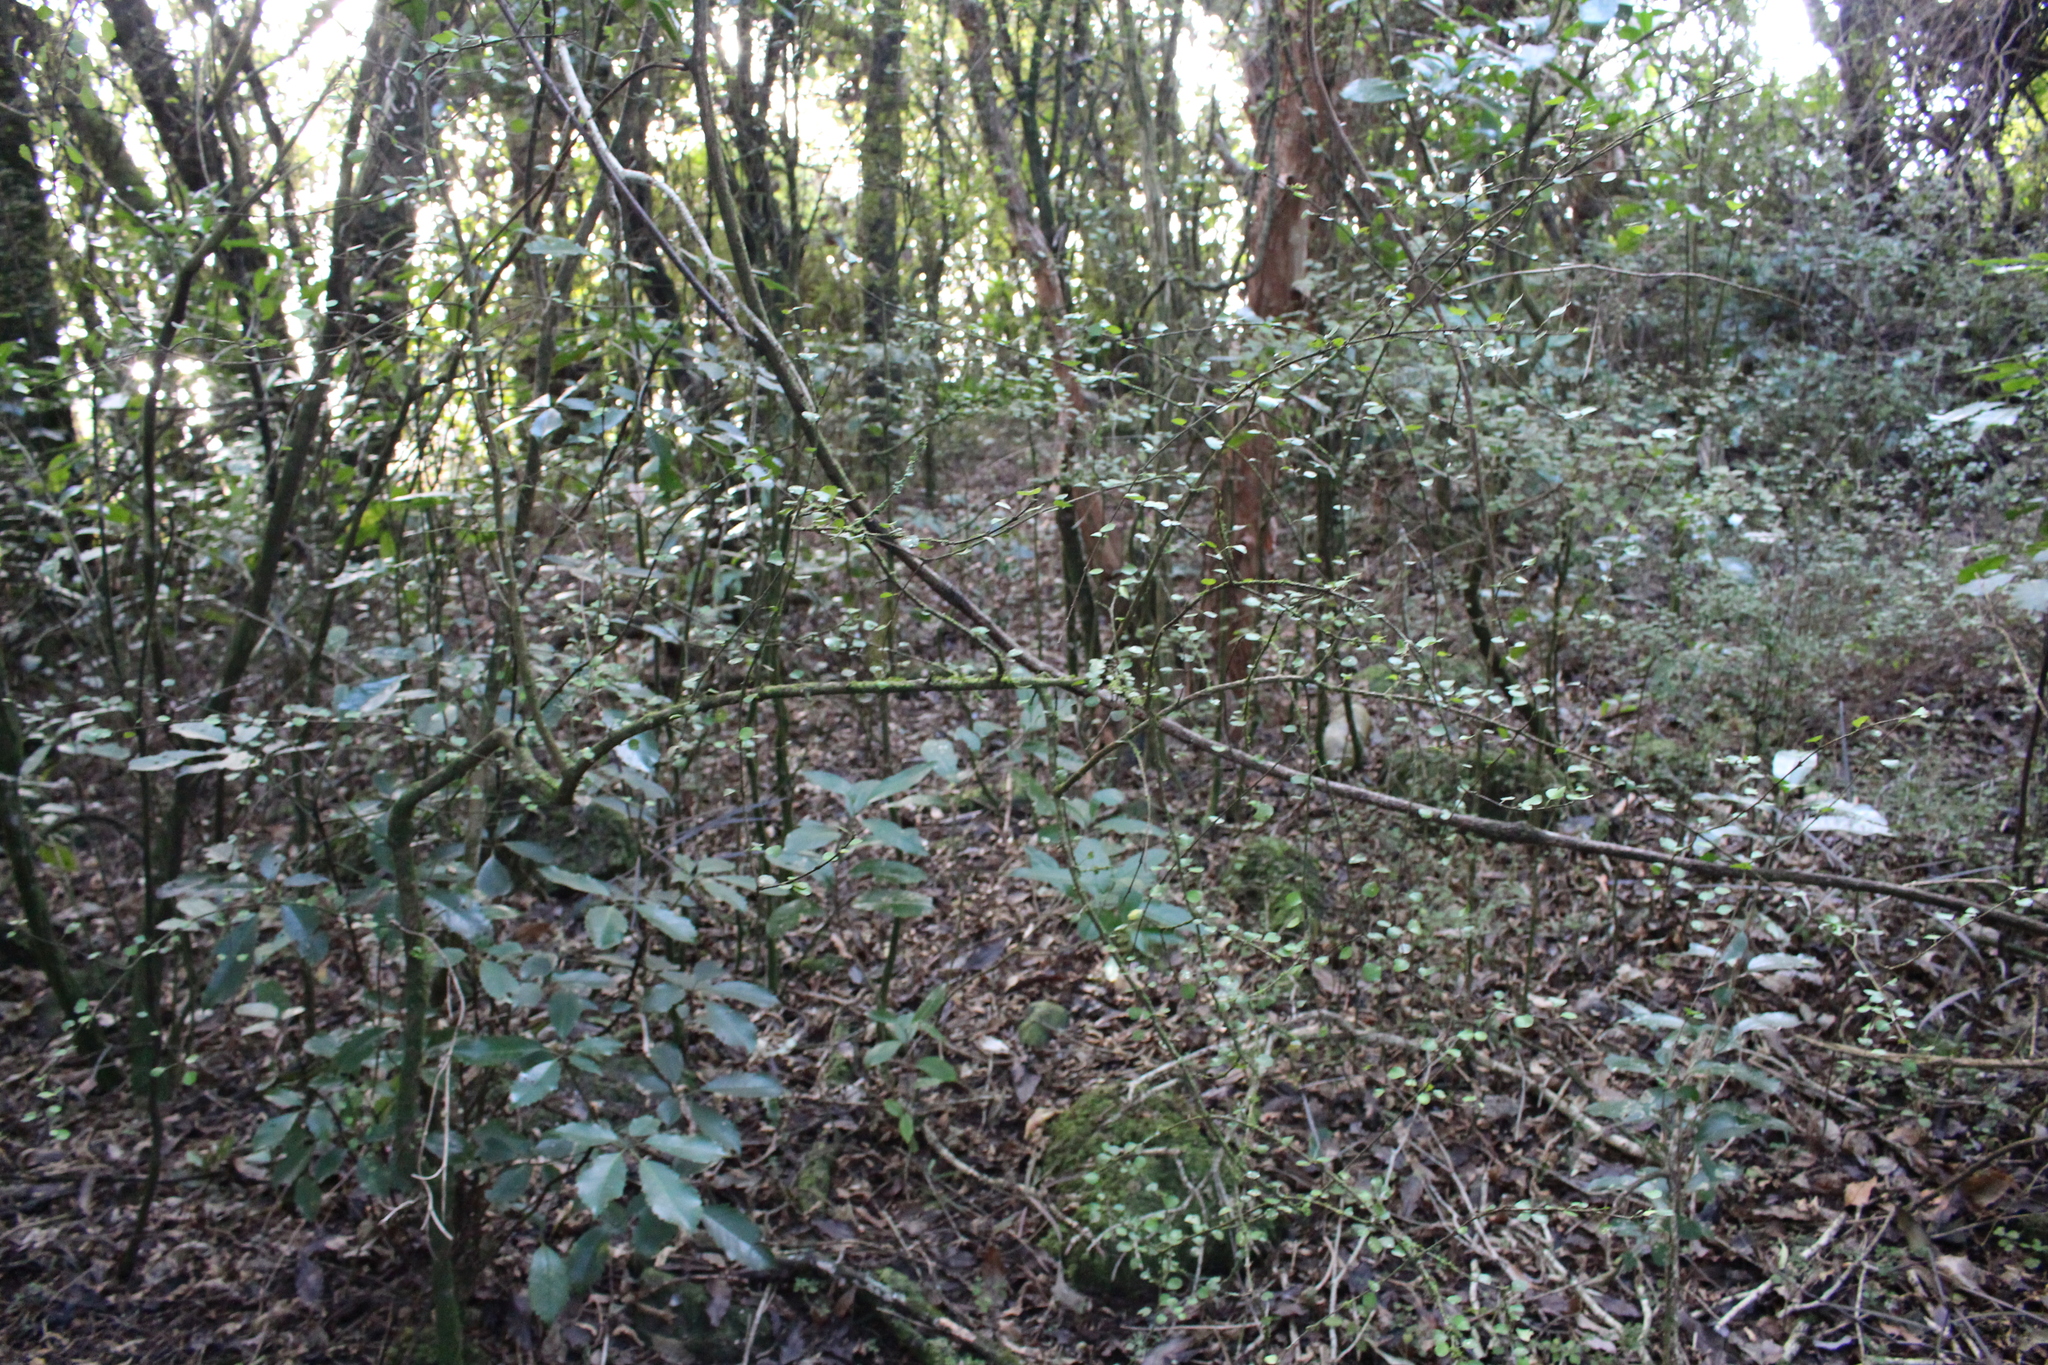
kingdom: Plantae
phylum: Tracheophyta
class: Magnoliopsida
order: Sapindales
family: Rutaceae
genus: Melicope
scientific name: Melicope simplex
